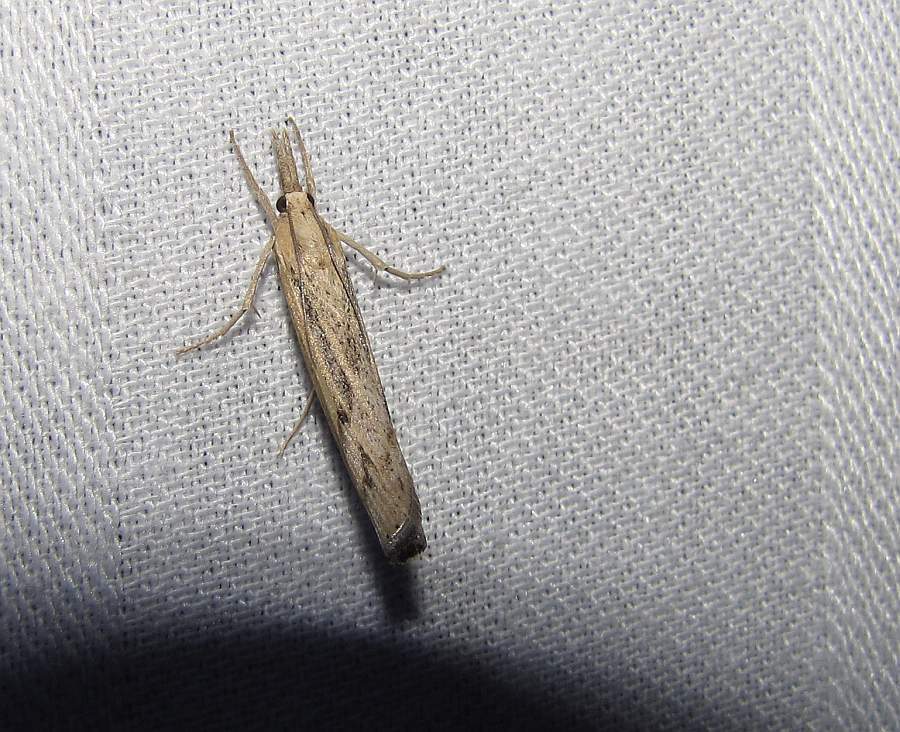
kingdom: Animalia
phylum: Arthropoda
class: Insecta
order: Lepidoptera
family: Crambidae
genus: Pediasia
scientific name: Pediasia trisecta
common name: Sod webworm moth
